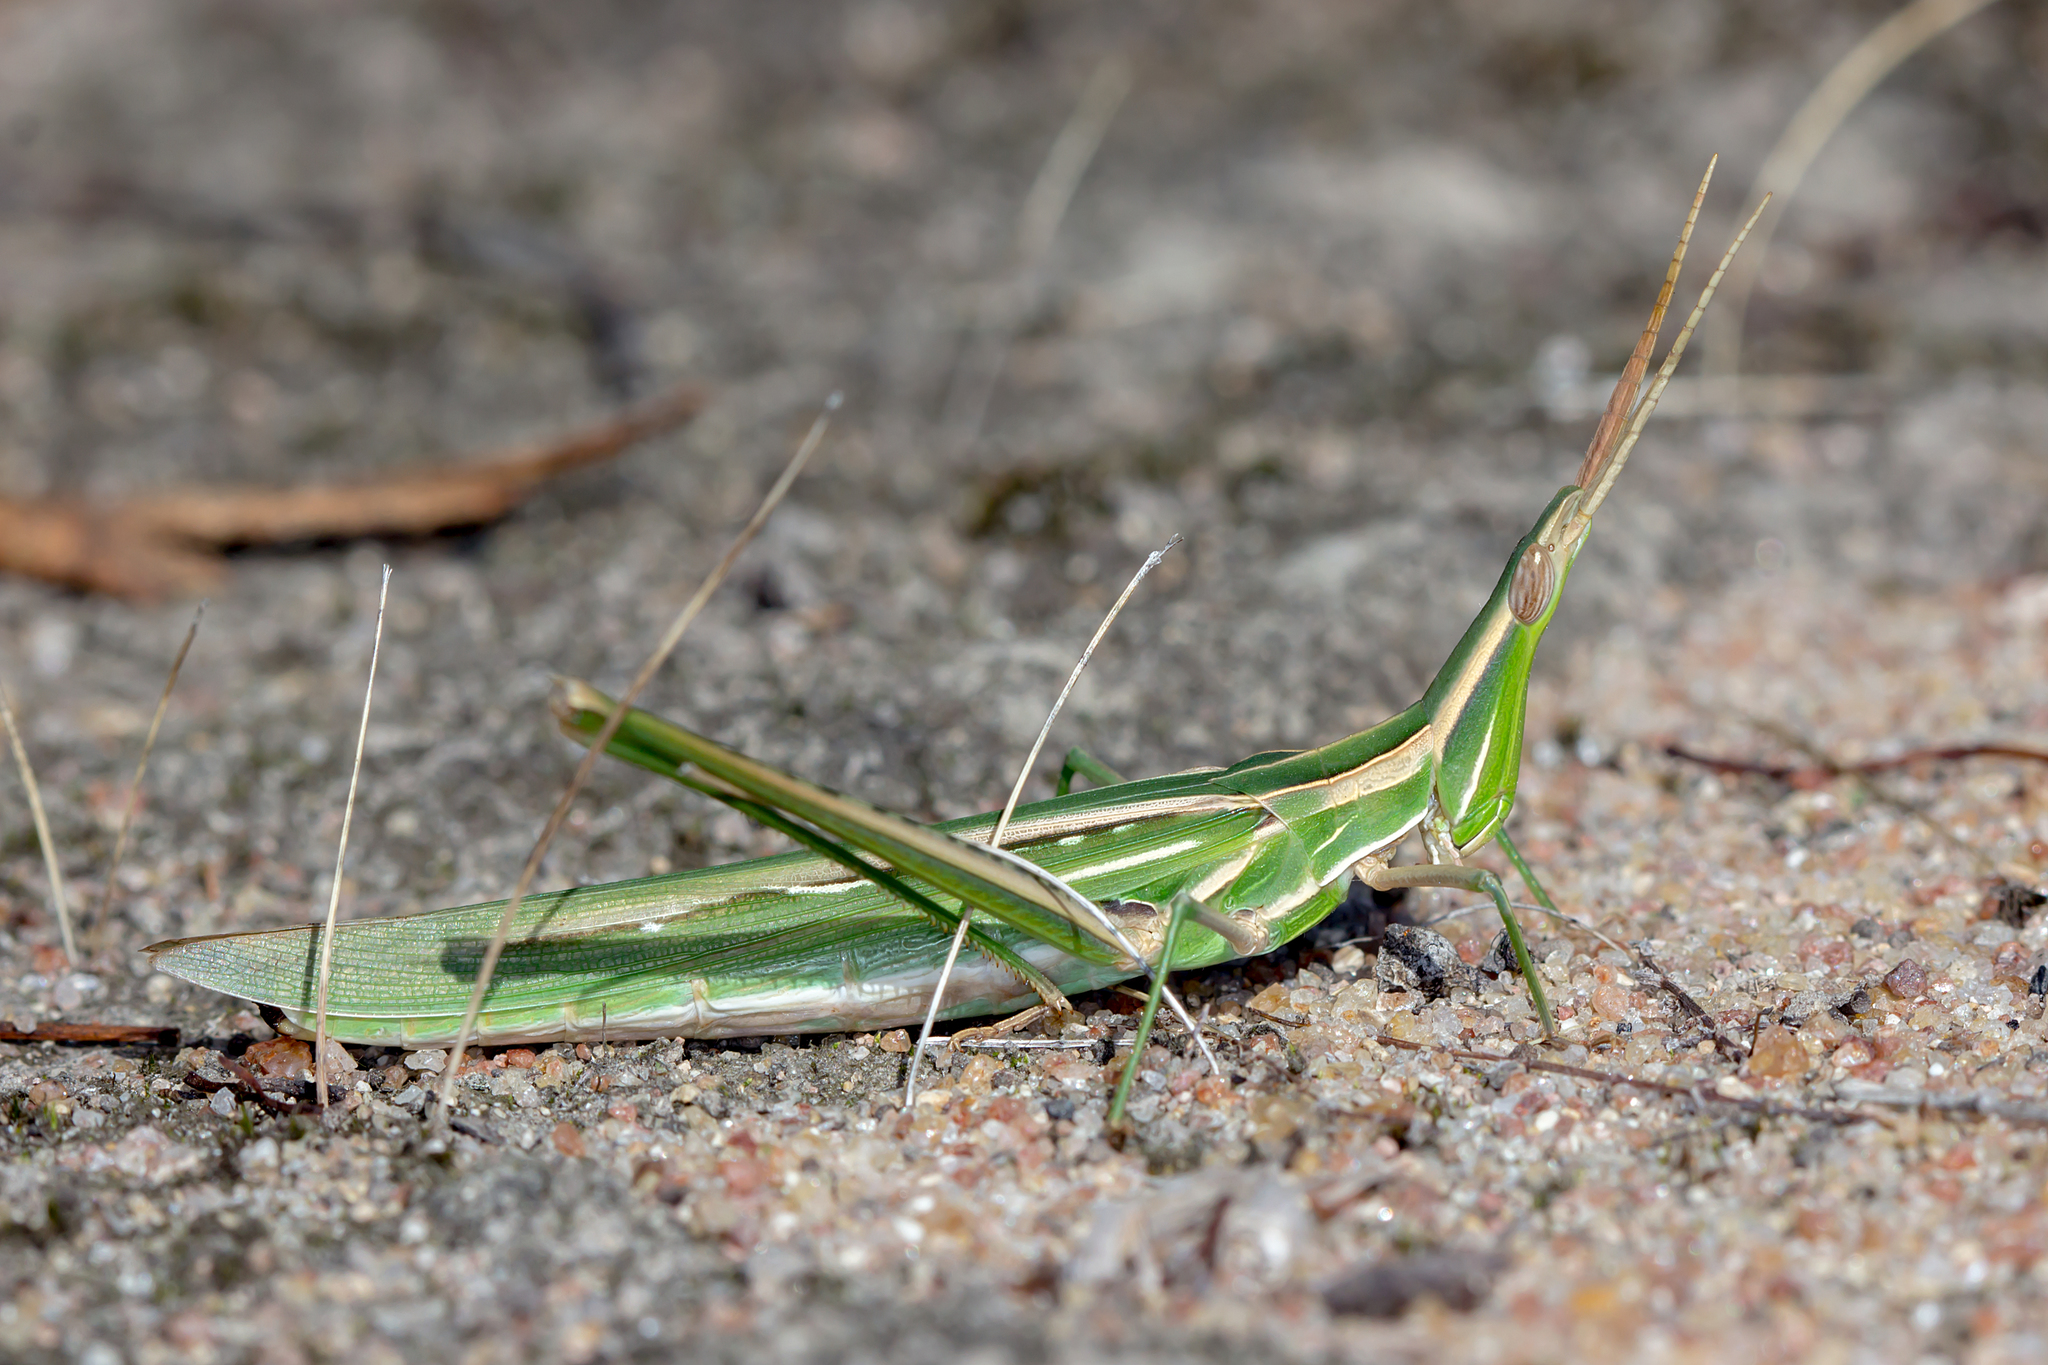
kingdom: Animalia
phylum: Arthropoda
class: Insecta
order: Orthoptera
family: Acrididae
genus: Acrida
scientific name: Acrida conica
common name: Giant green slantface
